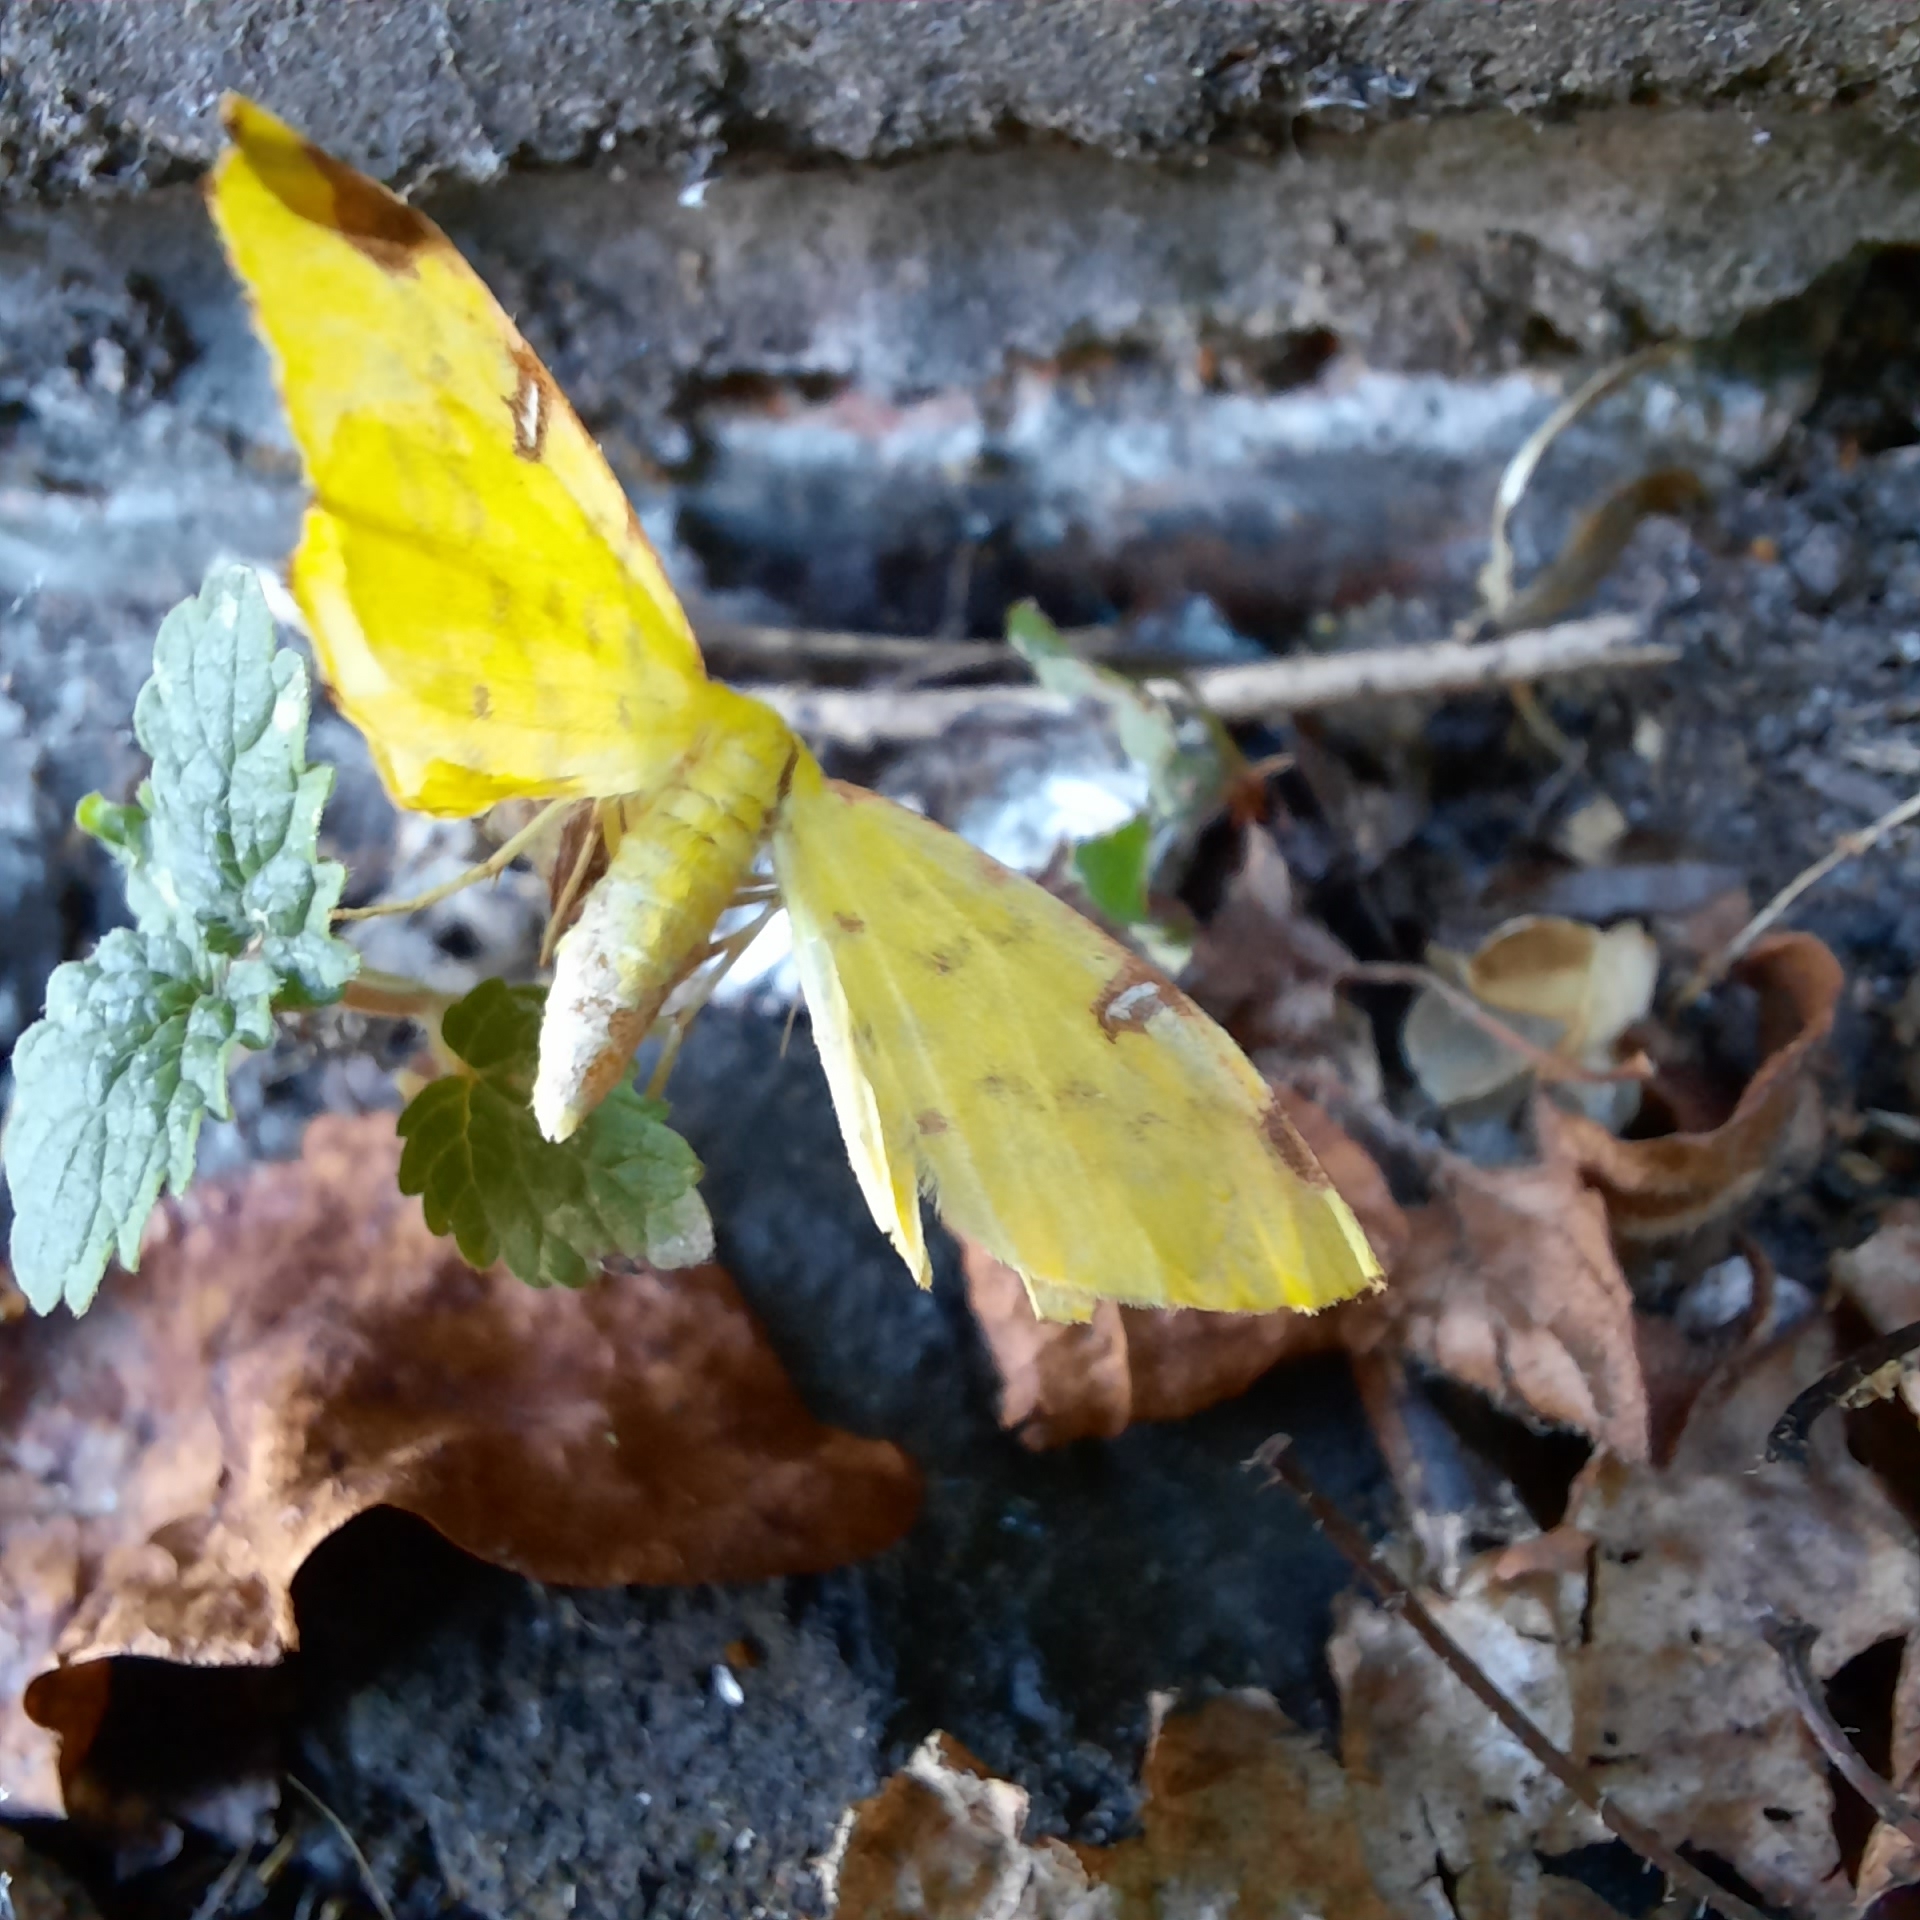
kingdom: Animalia
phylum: Arthropoda
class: Insecta
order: Lepidoptera
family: Geometridae
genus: Opisthograptis
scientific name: Opisthograptis luteolata
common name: Brimstone moth
